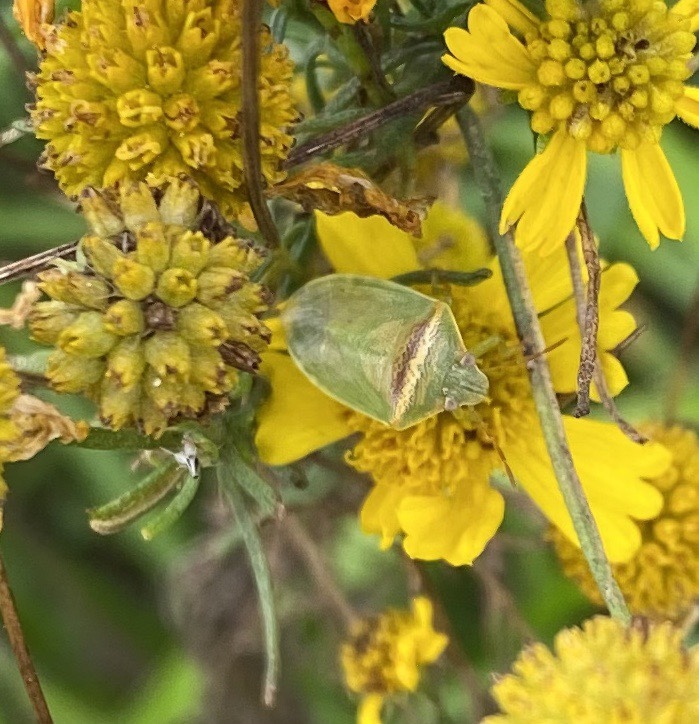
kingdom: Animalia
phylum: Arthropoda
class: Insecta
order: Hemiptera
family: Pentatomidae
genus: Piezodorus
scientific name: Piezodorus guildinii
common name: Redbanded stink bug
